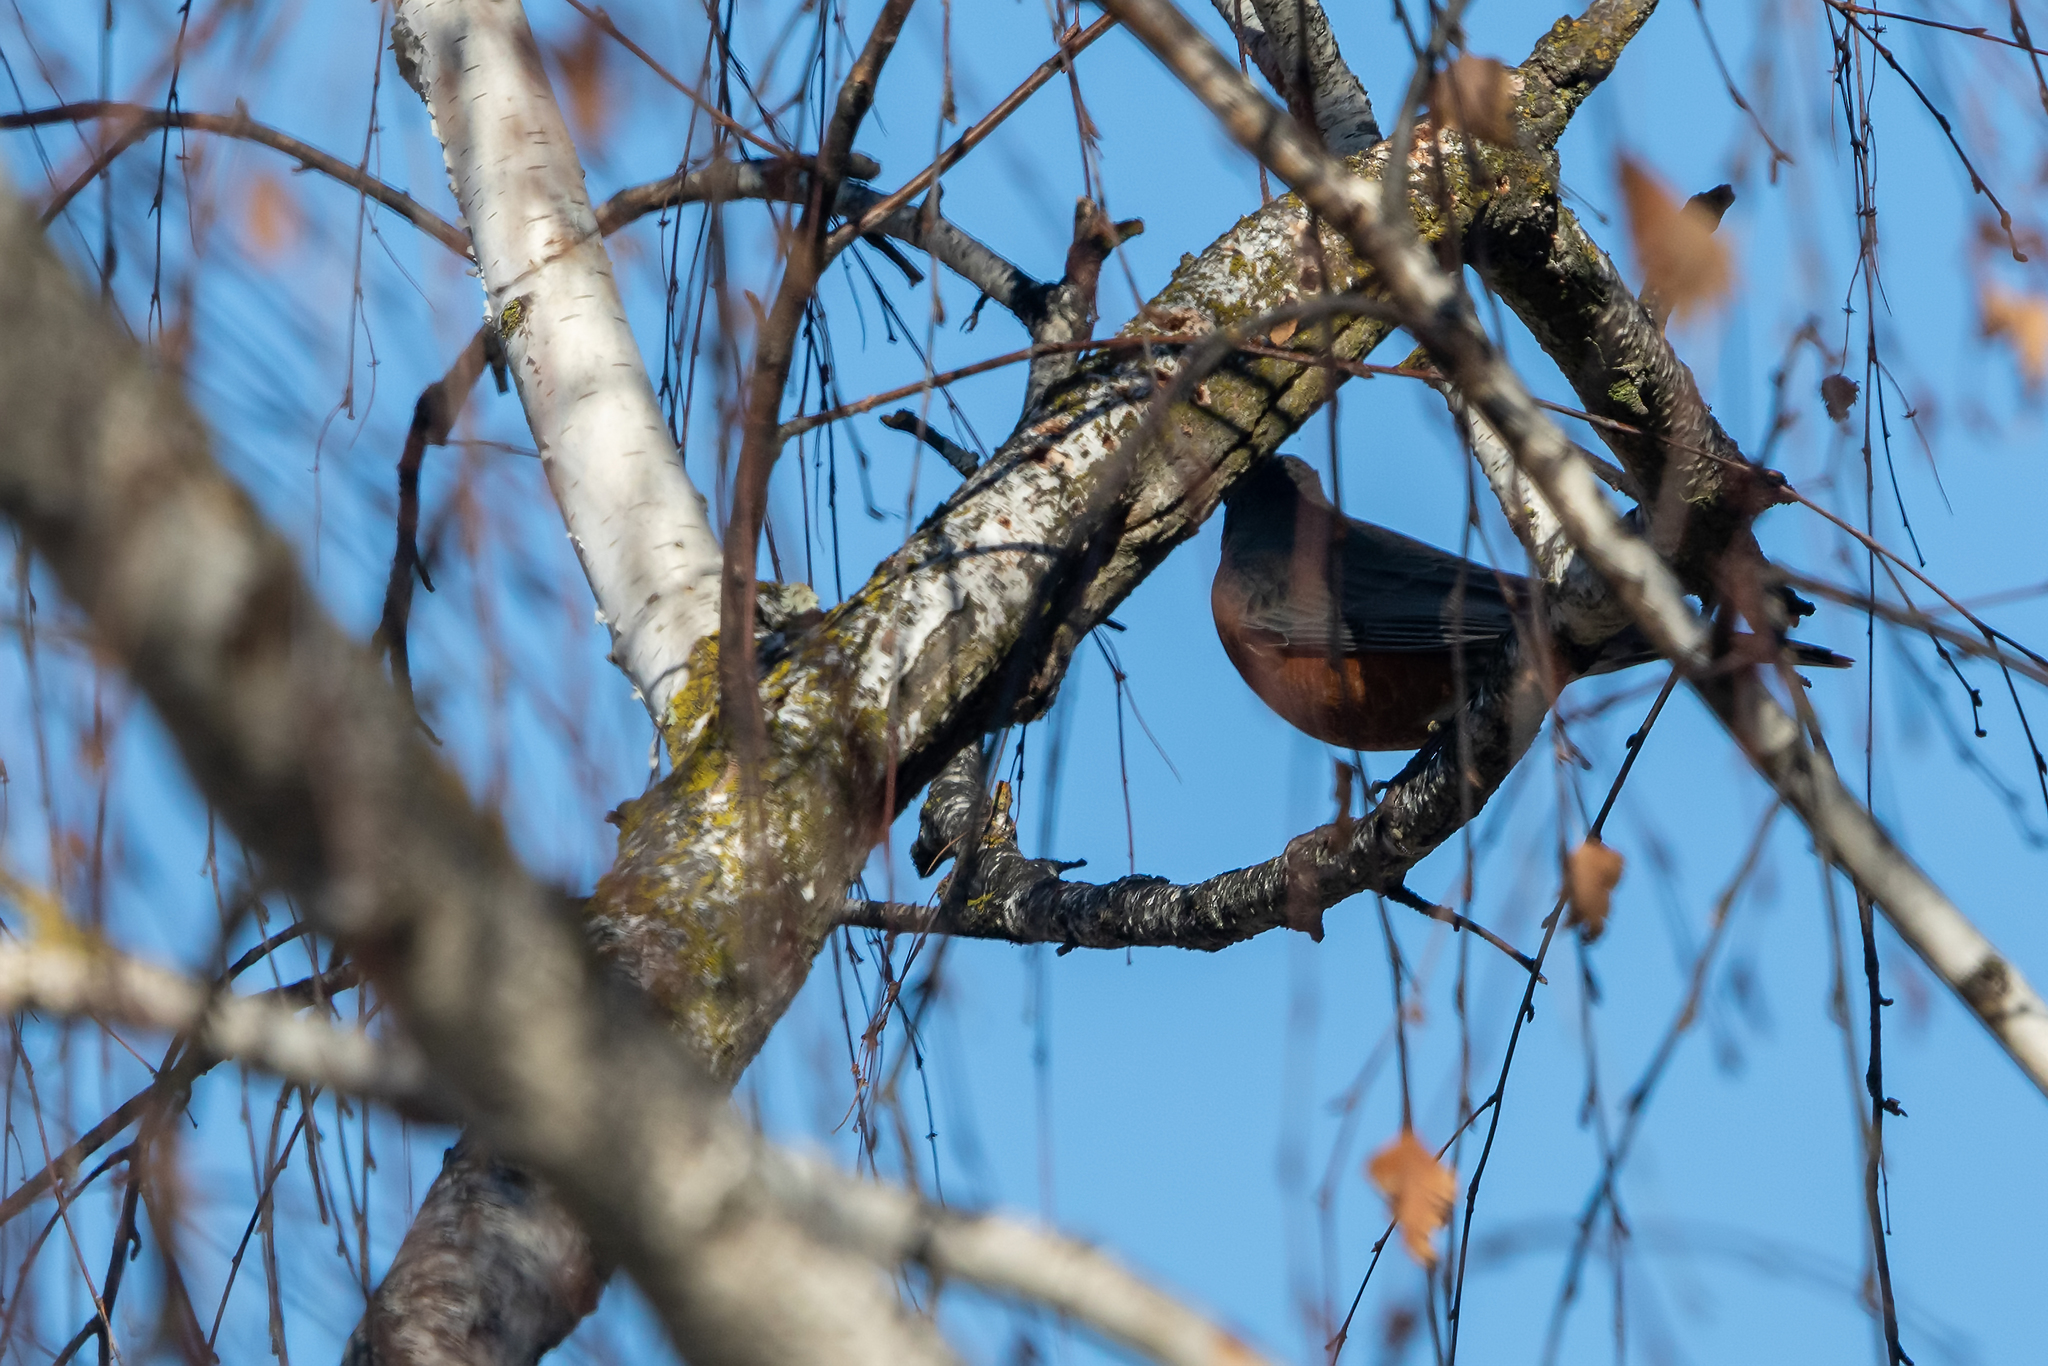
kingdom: Animalia
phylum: Chordata
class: Aves
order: Passeriformes
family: Turdidae
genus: Turdus
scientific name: Turdus migratorius
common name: American robin
